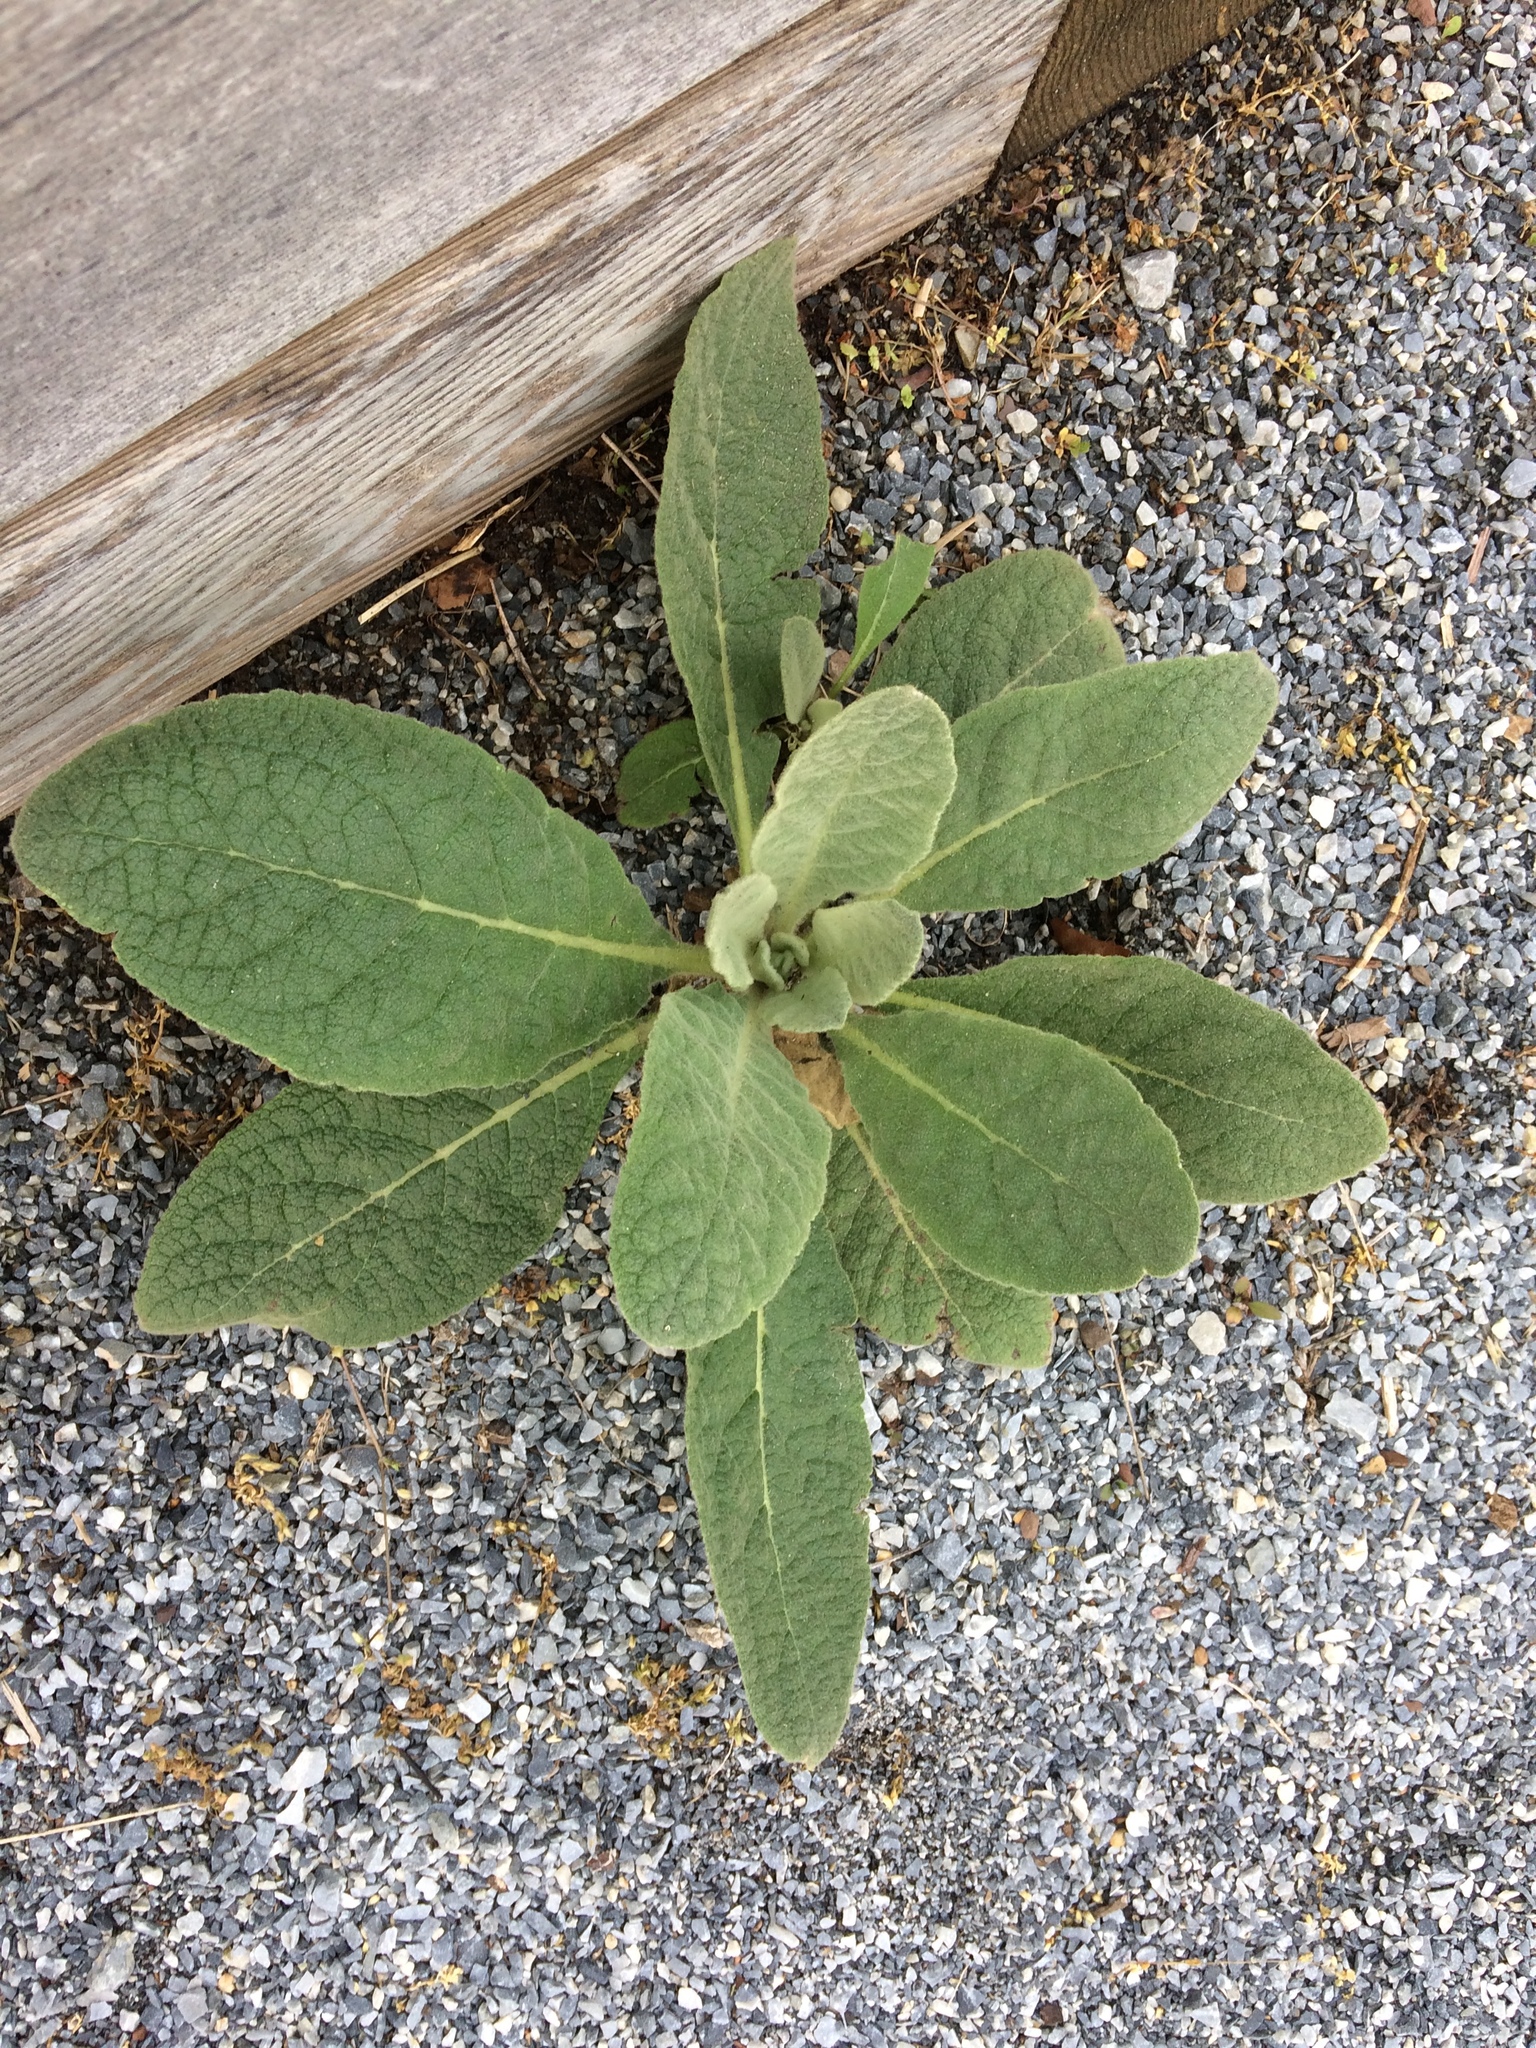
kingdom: Plantae
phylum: Tracheophyta
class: Magnoliopsida
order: Lamiales
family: Scrophulariaceae
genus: Verbascum
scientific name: Verbascum thapsus
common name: Common mullein
